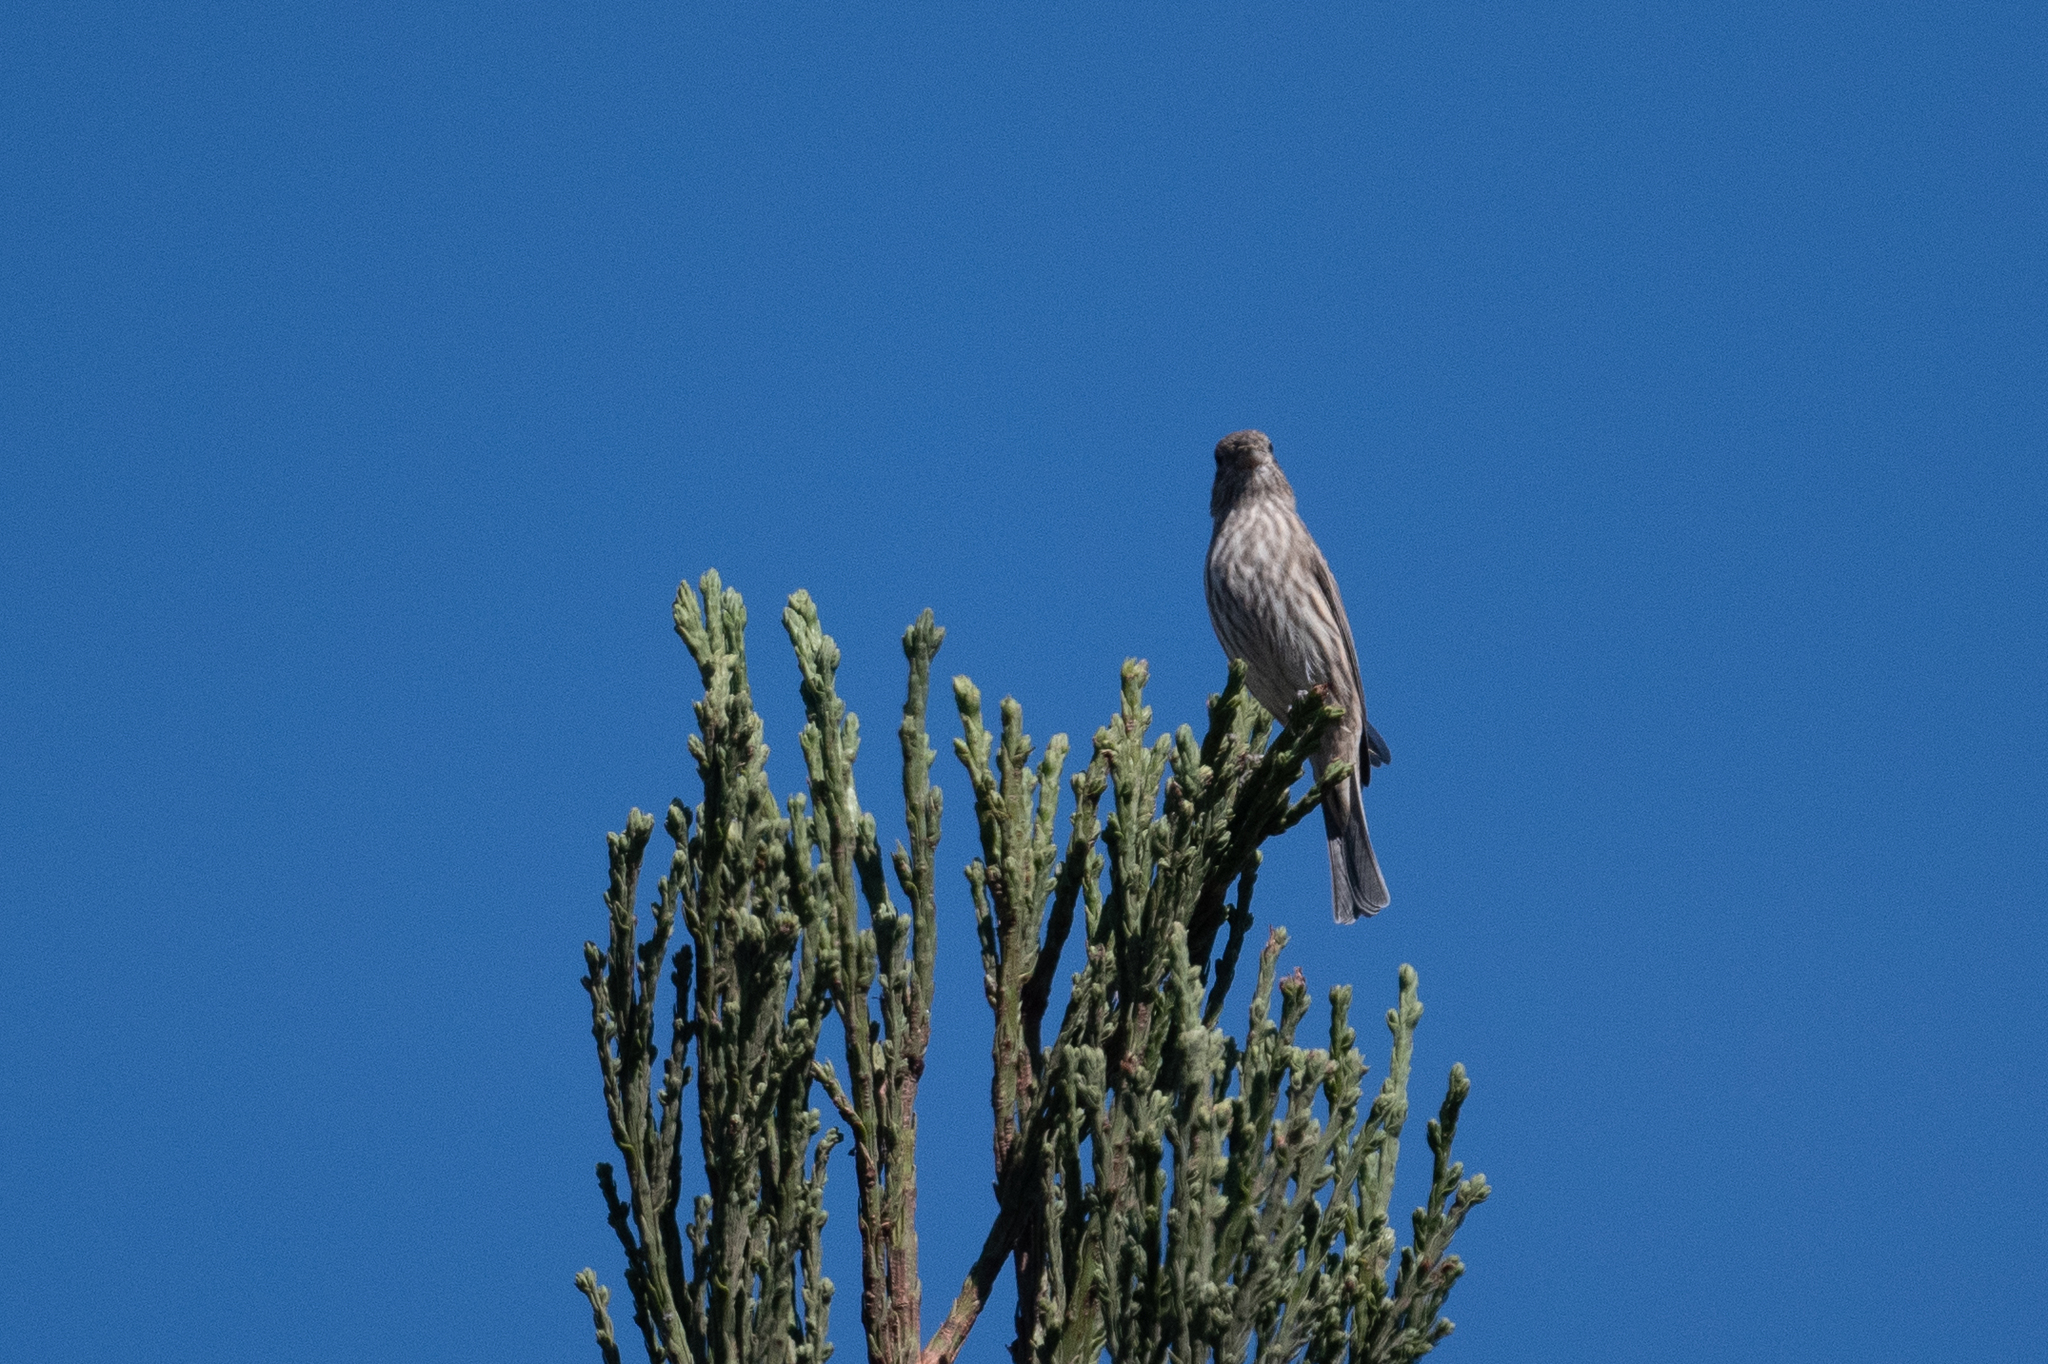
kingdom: Animalia
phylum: Chordata
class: Aves
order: Passeriformes
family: Fringillidae
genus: Haemorhous
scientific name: Haemorhous mexicanus
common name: House finch
